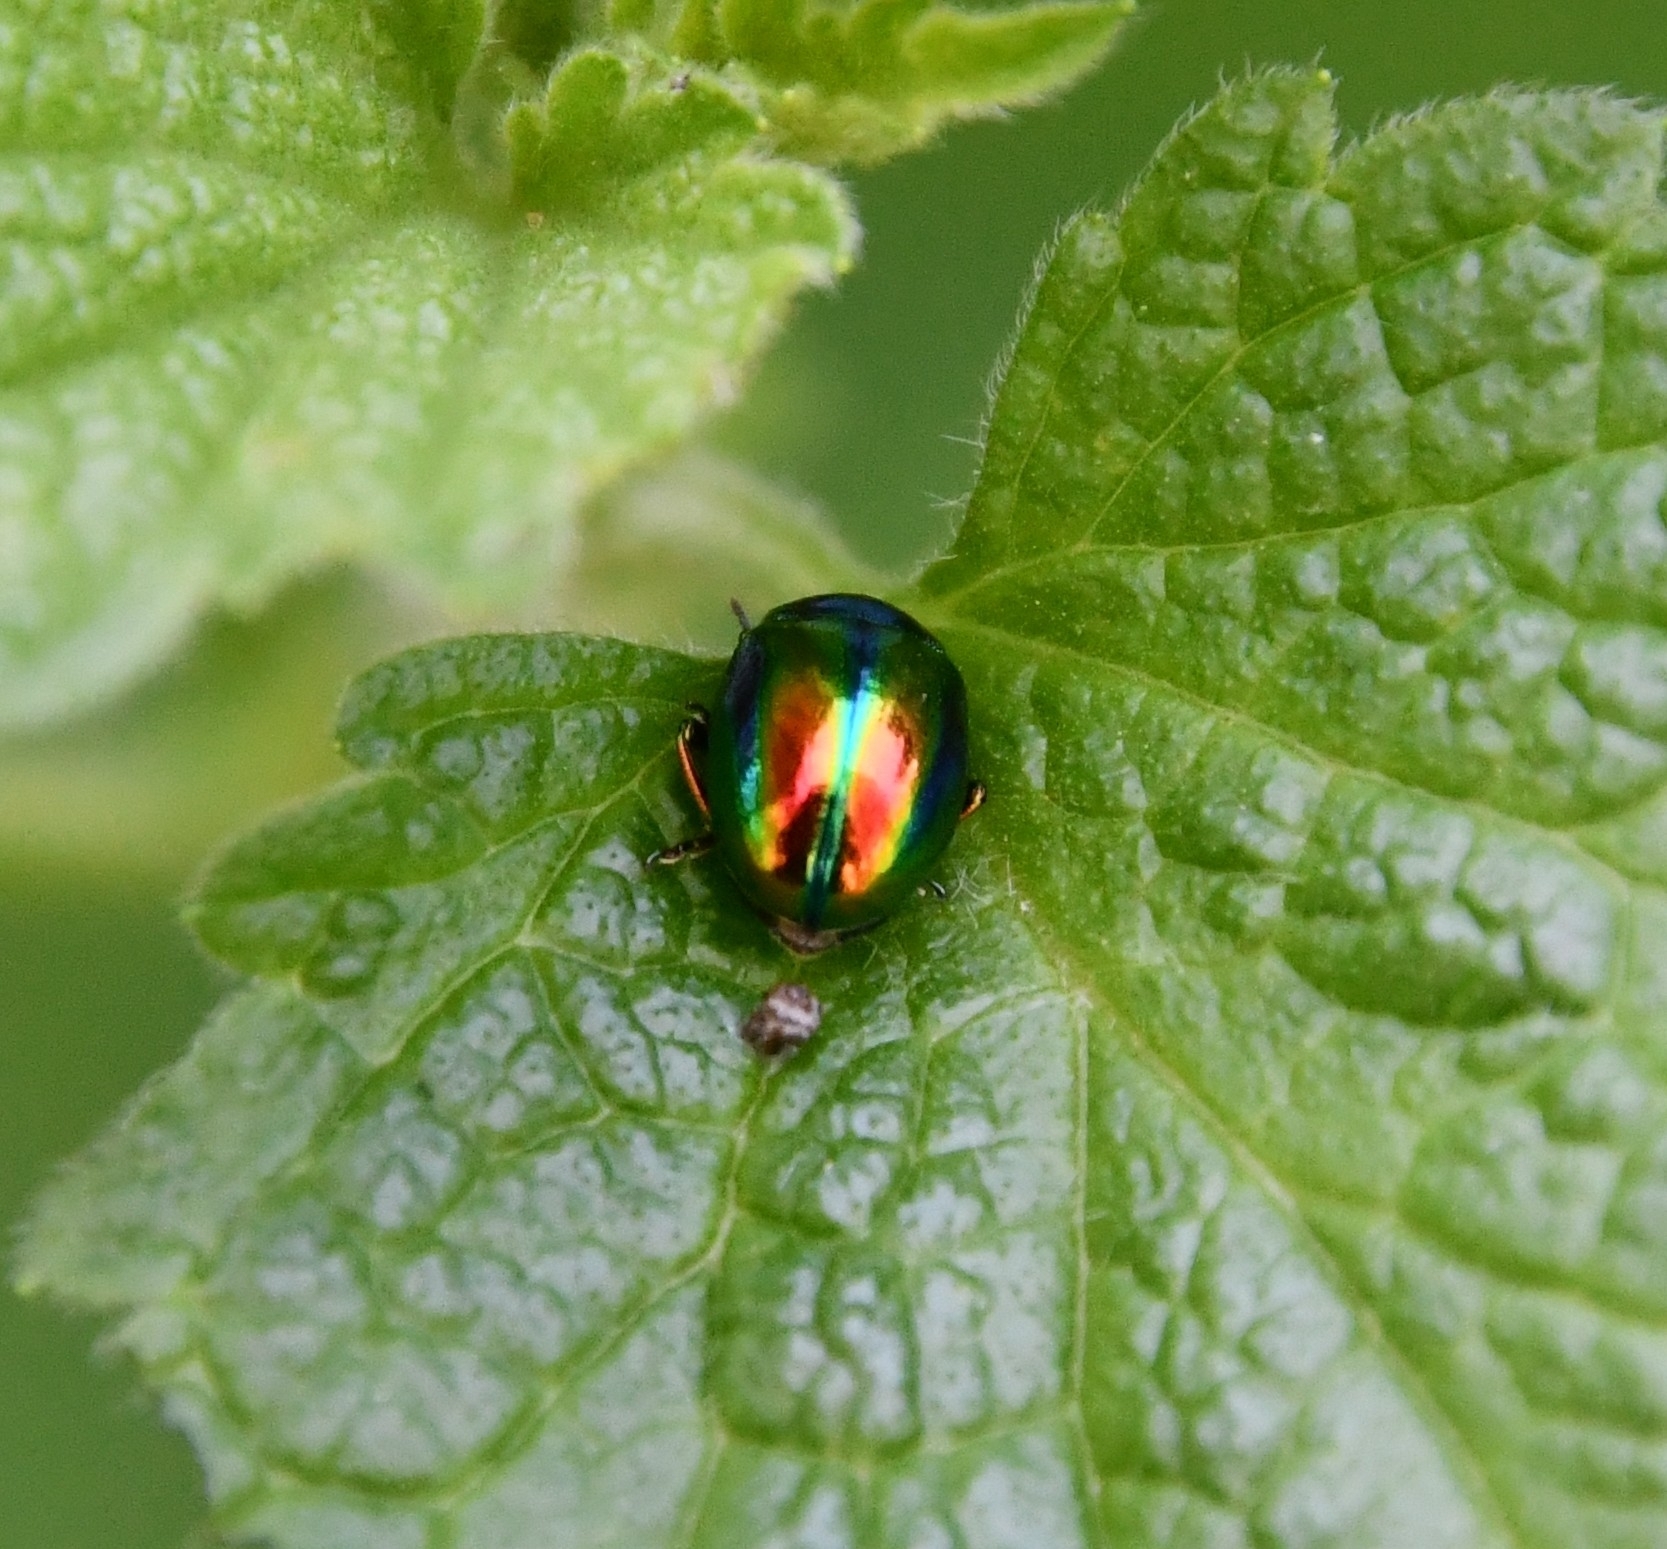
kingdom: Animalia
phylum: Arthropoda
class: Insecta
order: Coleoptera
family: Chrysomelidae
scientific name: Chrysomelidae
